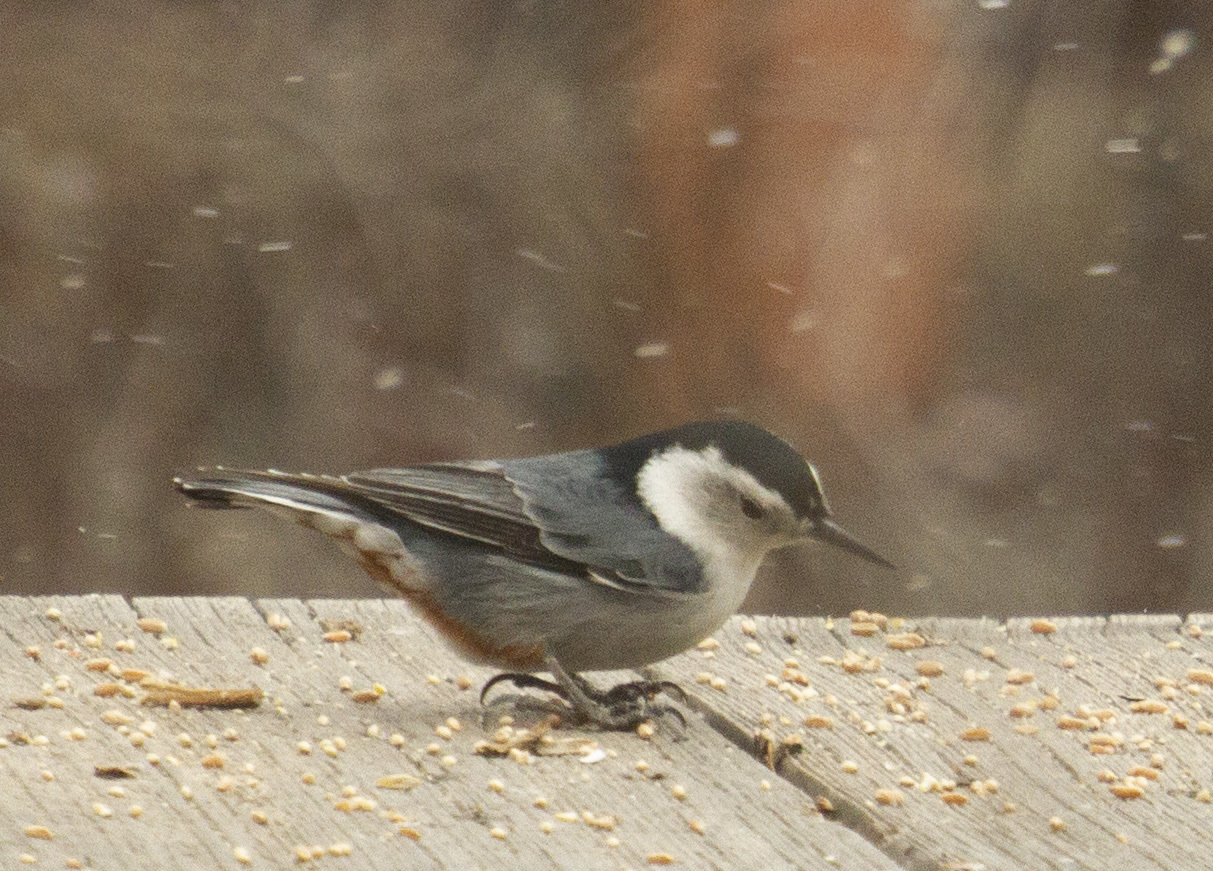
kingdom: Animalia
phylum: Chordata
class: Aves
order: Passeriformes
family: Sittidae
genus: Sitta
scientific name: Sitta carolinensis
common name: White-breasted nuthatch
